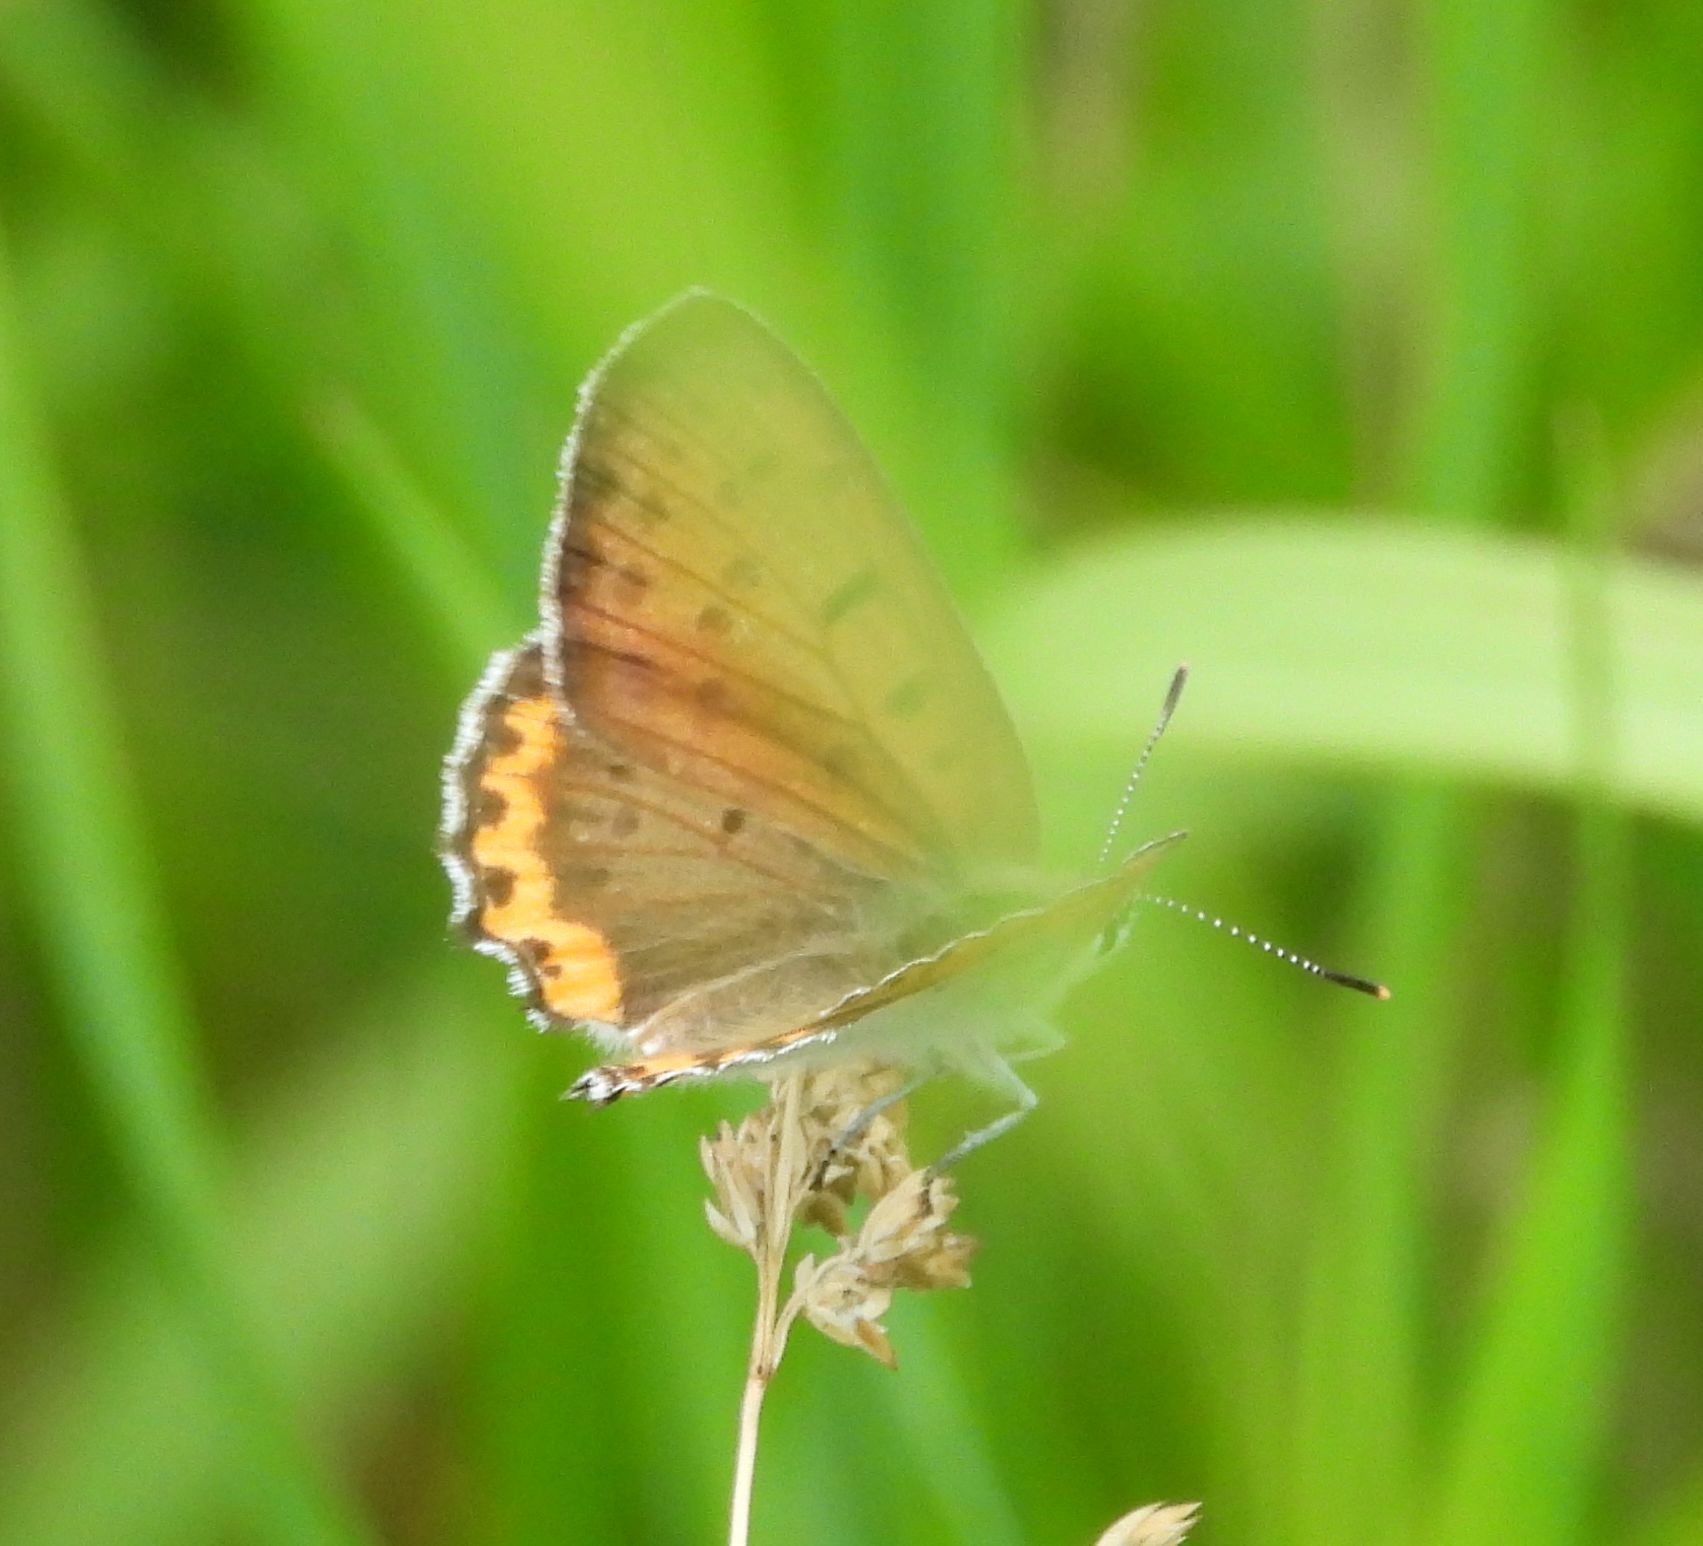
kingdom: Animalia
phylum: Arthropoda
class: Insecta
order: Lepidoptera
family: Lycaenidae
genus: Tharsalea
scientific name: Tharsalea hyllus
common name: Bronze copper
